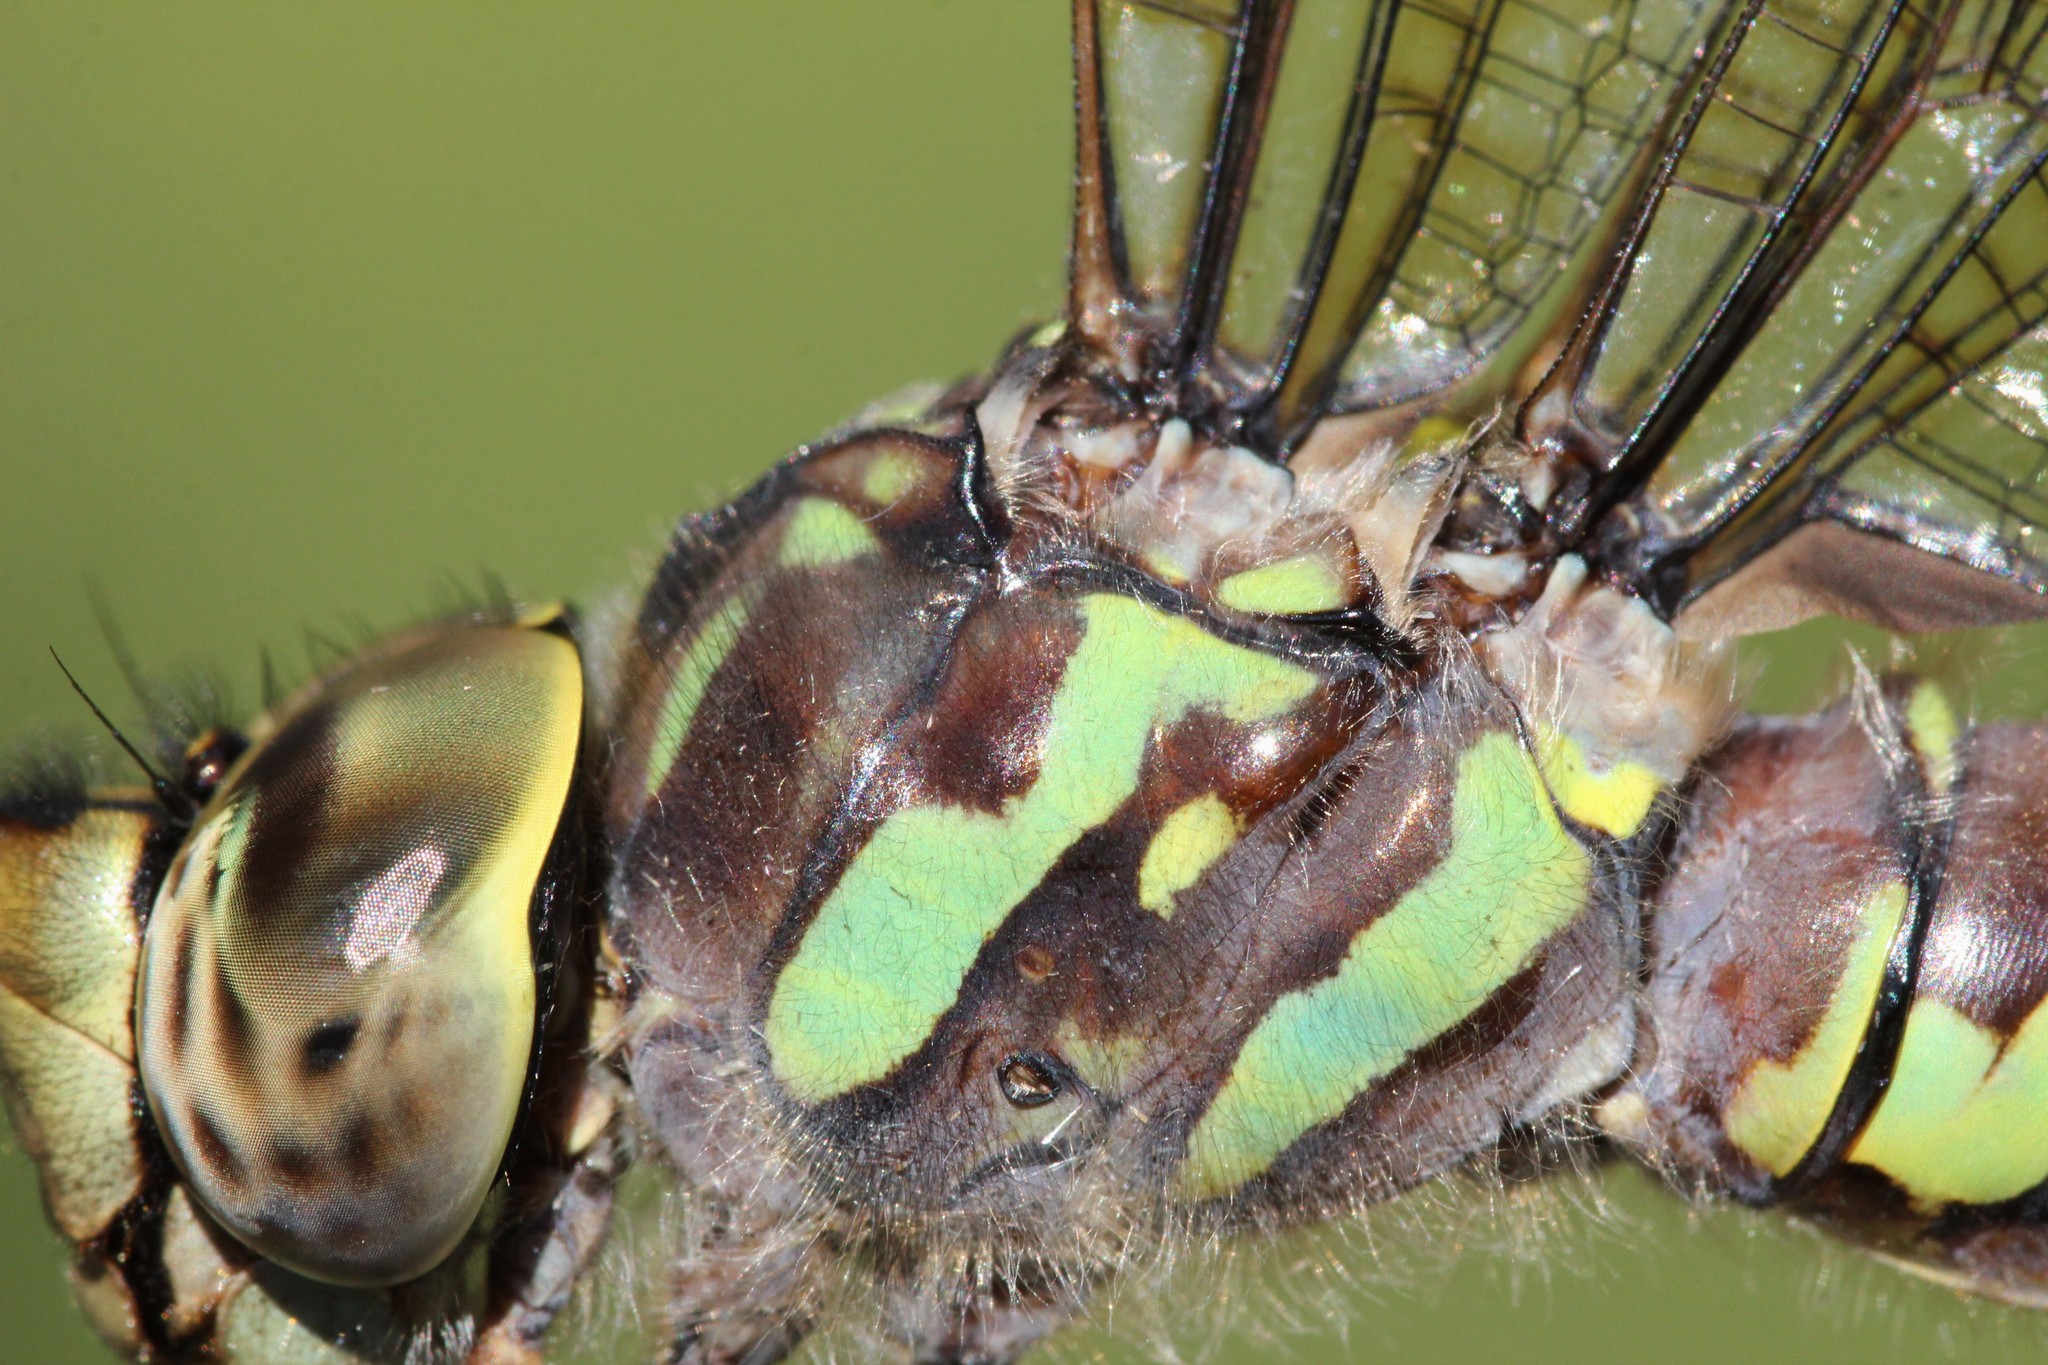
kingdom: Animalia
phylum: Arthropoda
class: Insecta
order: Odonata
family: Aeshnidae
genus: Aeshna
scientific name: Aeshna canadensis
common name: Canada darner
